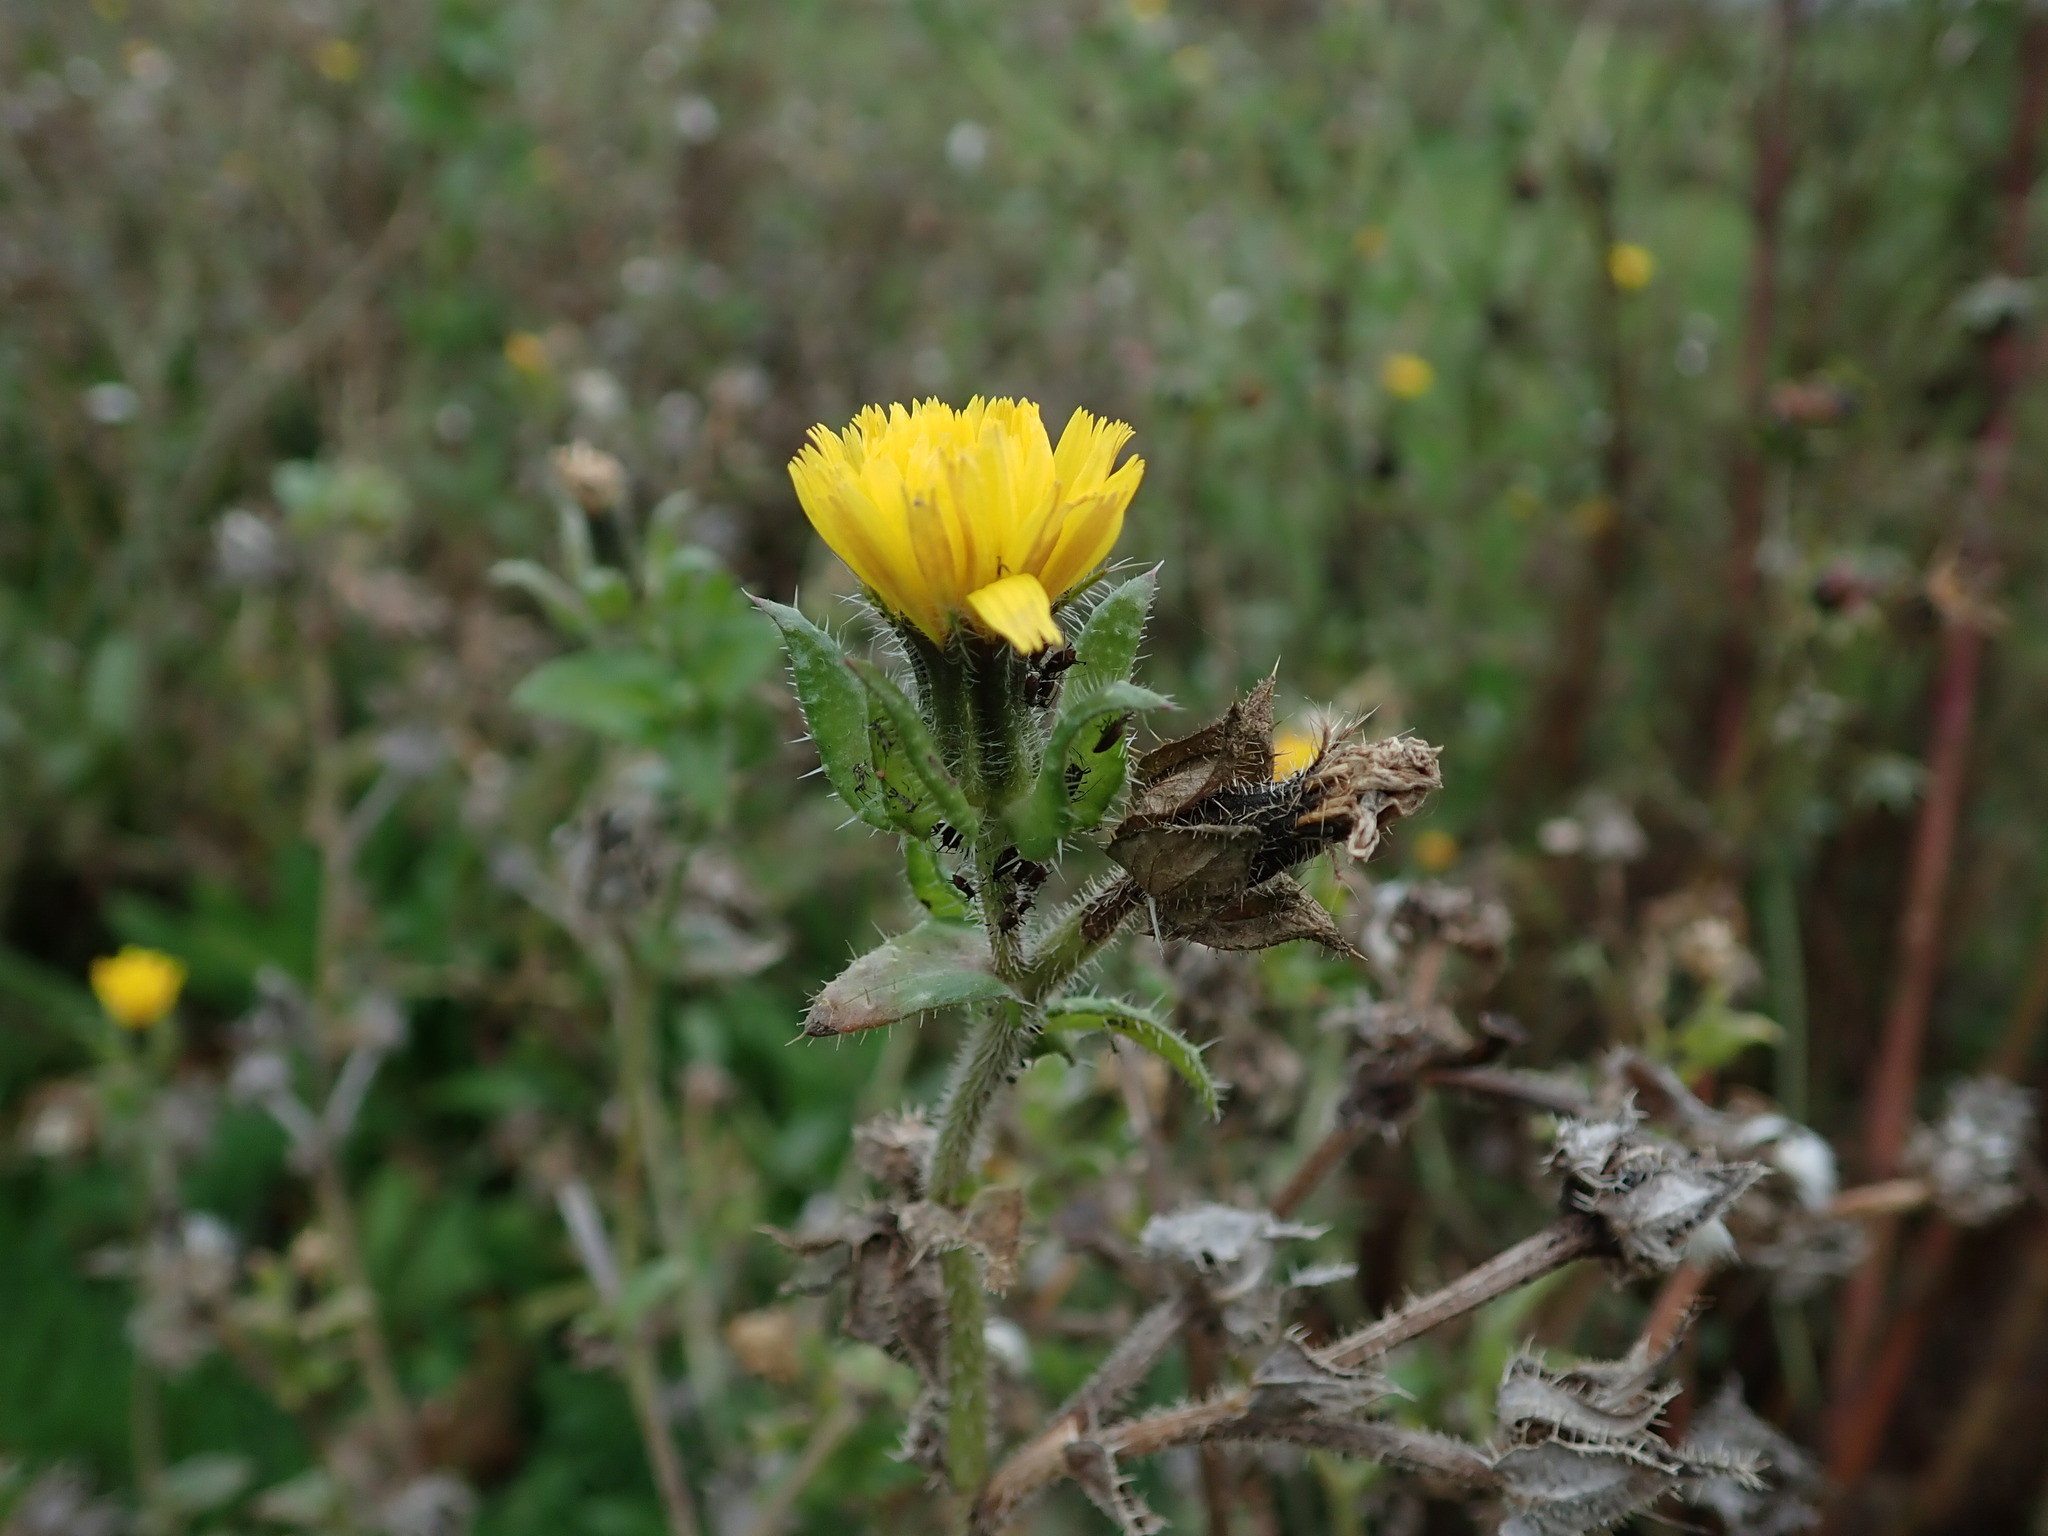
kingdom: Plantae
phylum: Tracheophyta
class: Magnoliopsida
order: Asterales
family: Asteraceae
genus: Helminthotheca
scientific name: Helminthotheca echioides
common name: Ox-tongue
